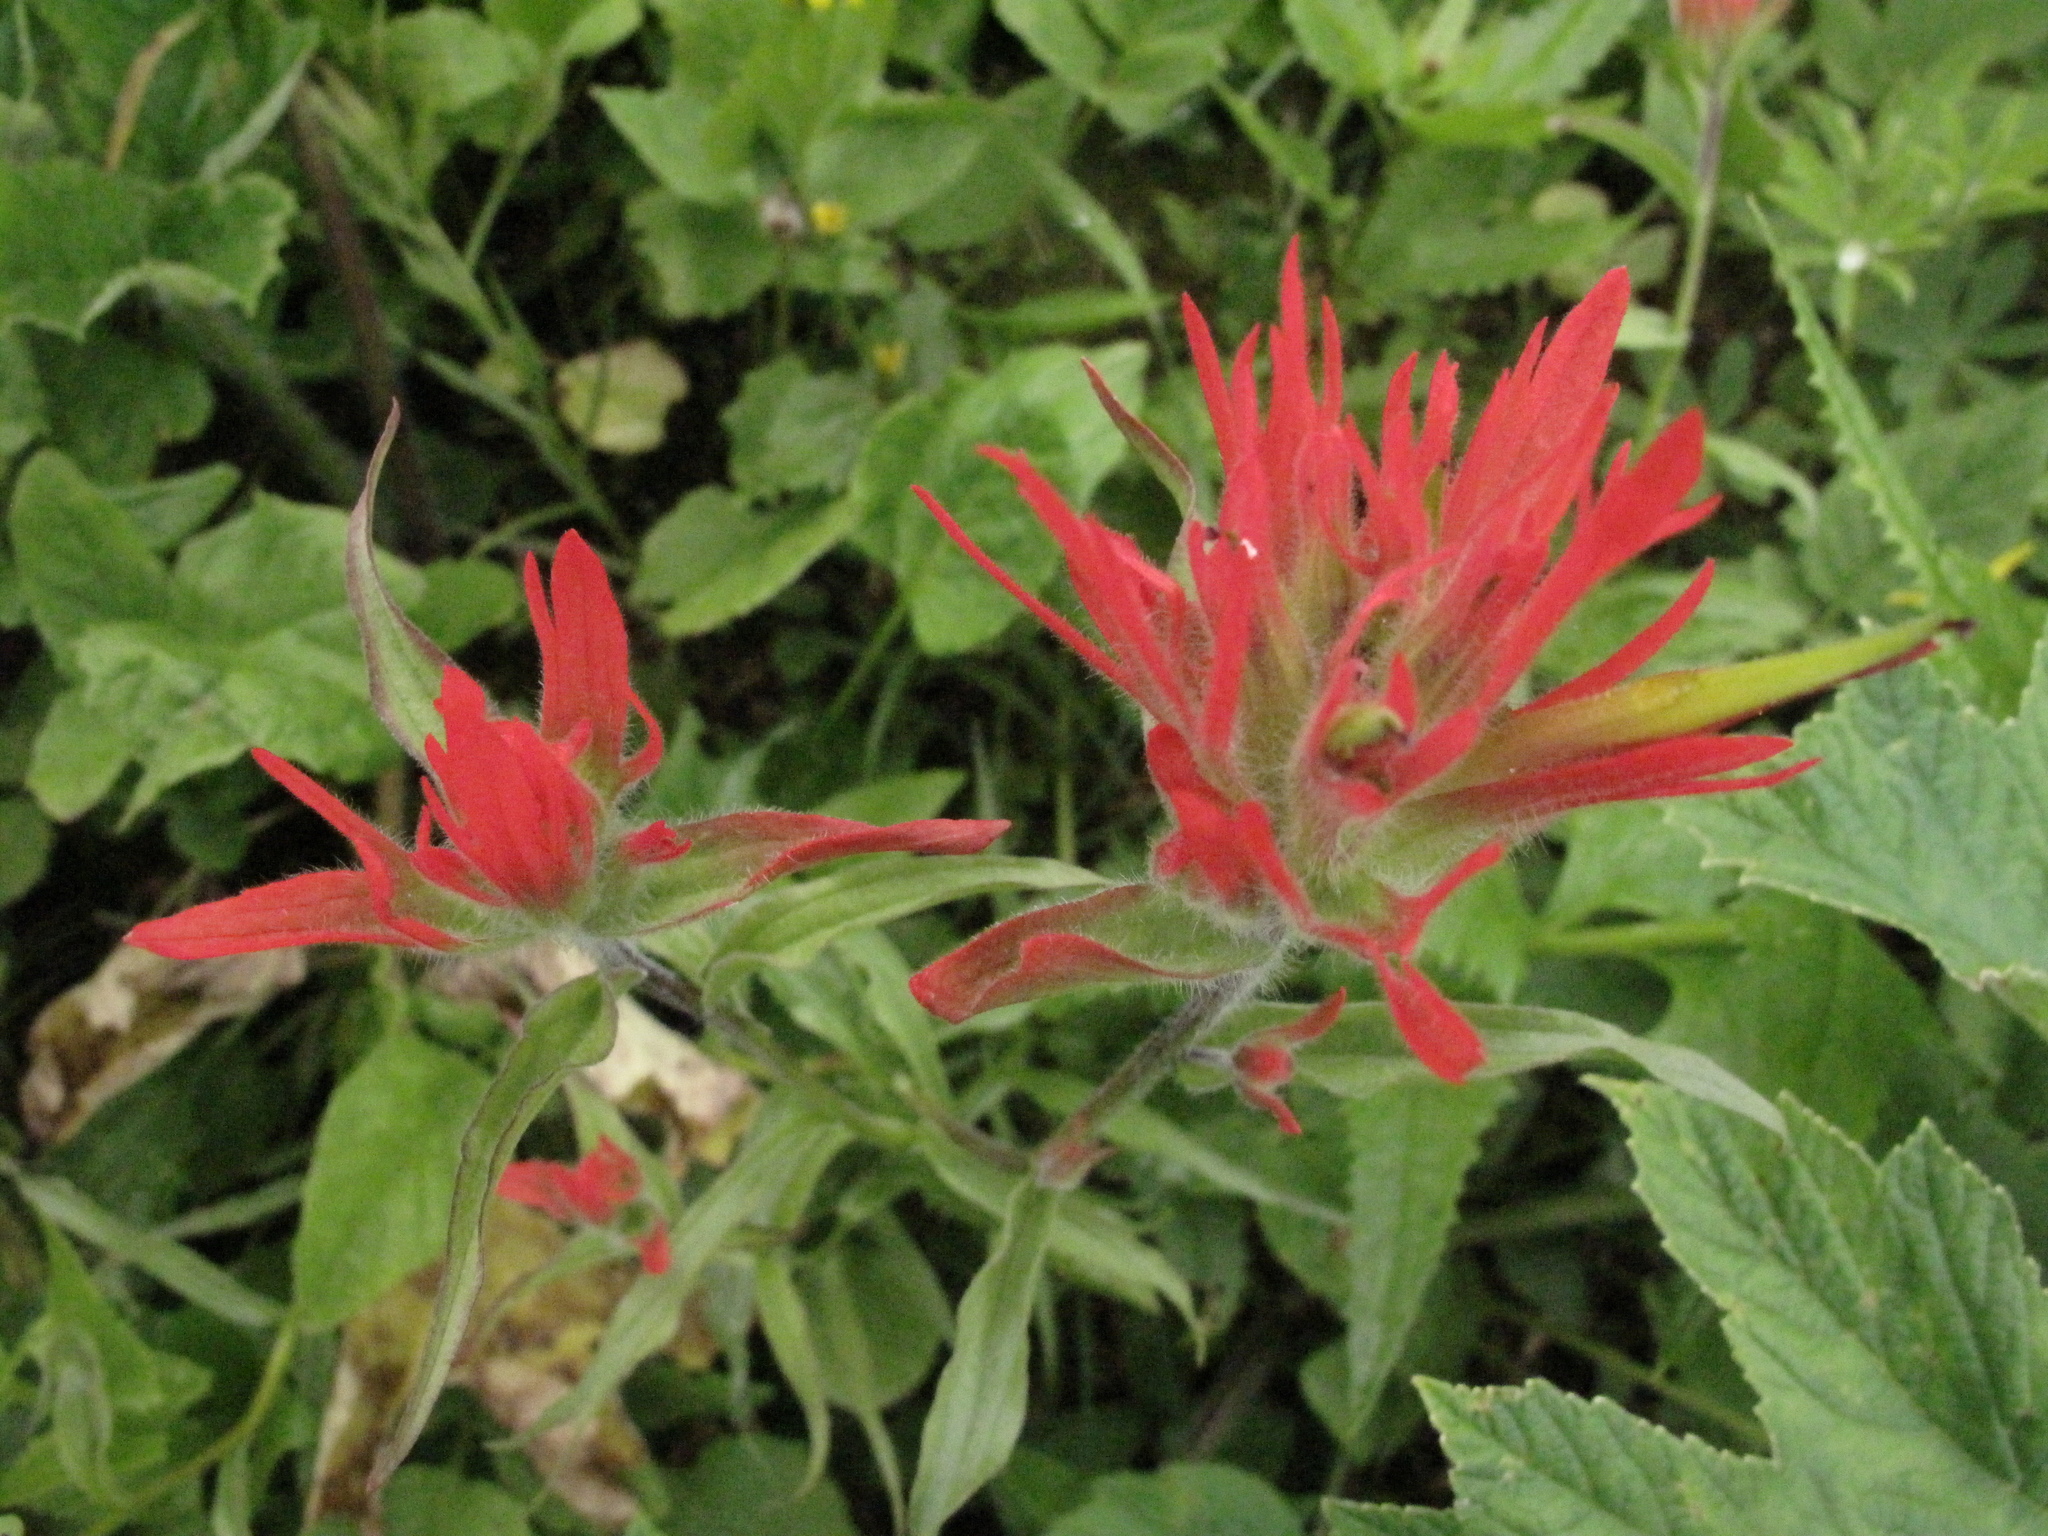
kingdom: Plantae
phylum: Tracheophyta
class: Magnoliopsida
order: Lamiales
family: Orobanchaceae
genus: Castilleja
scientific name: Castilleja miniata
